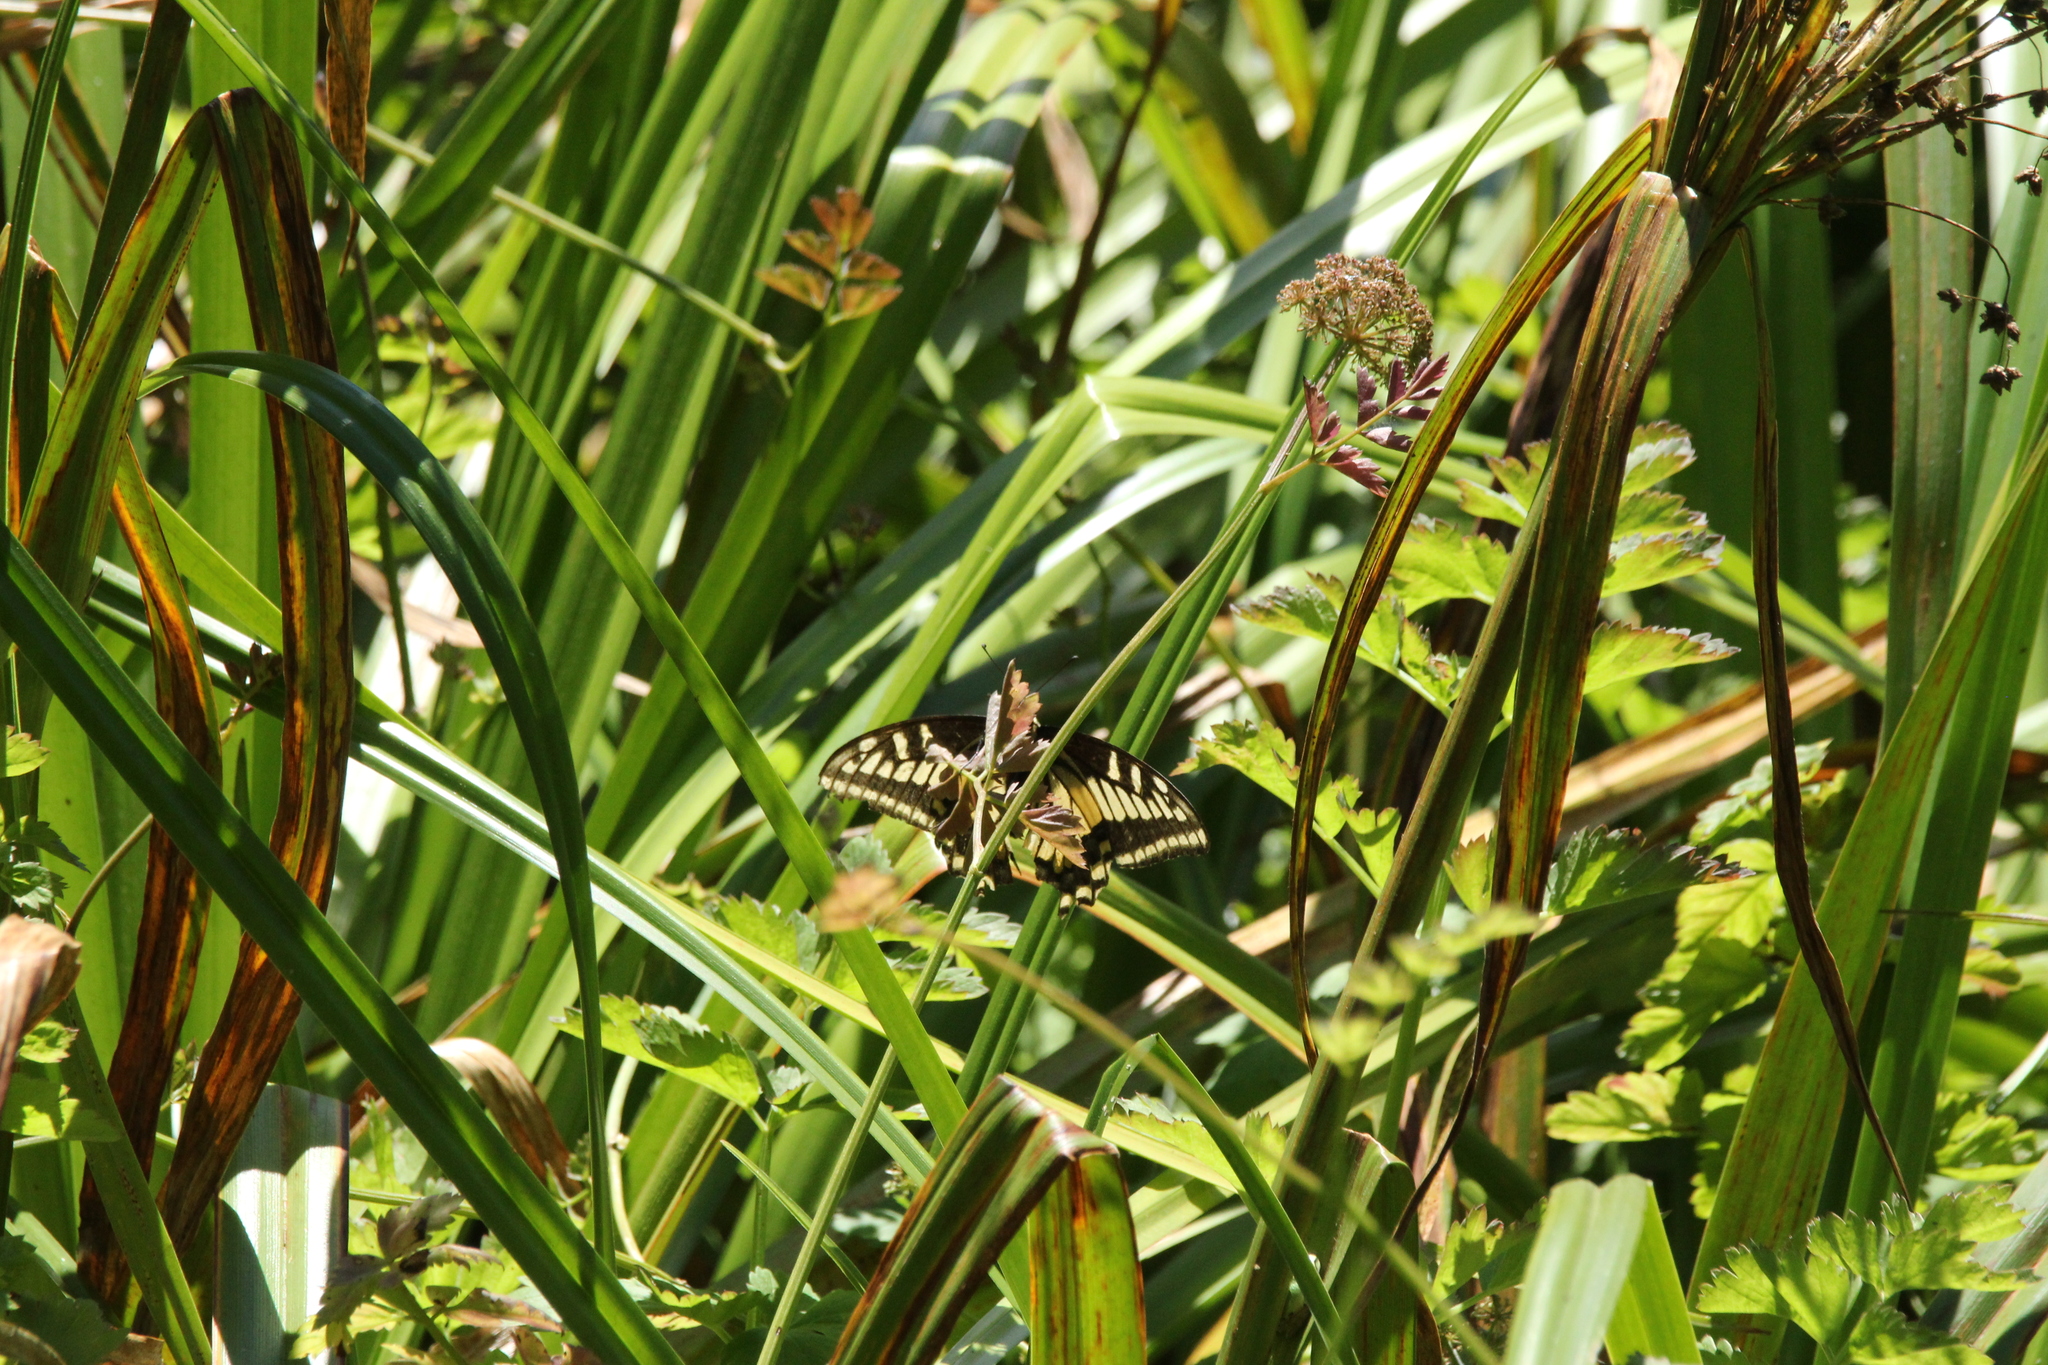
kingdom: Animalia
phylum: Arthropoda
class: Insecta
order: Lepidoptera
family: Papilionidae
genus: Papilio
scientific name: Papilio zelicaon
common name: Anise swallowtail
